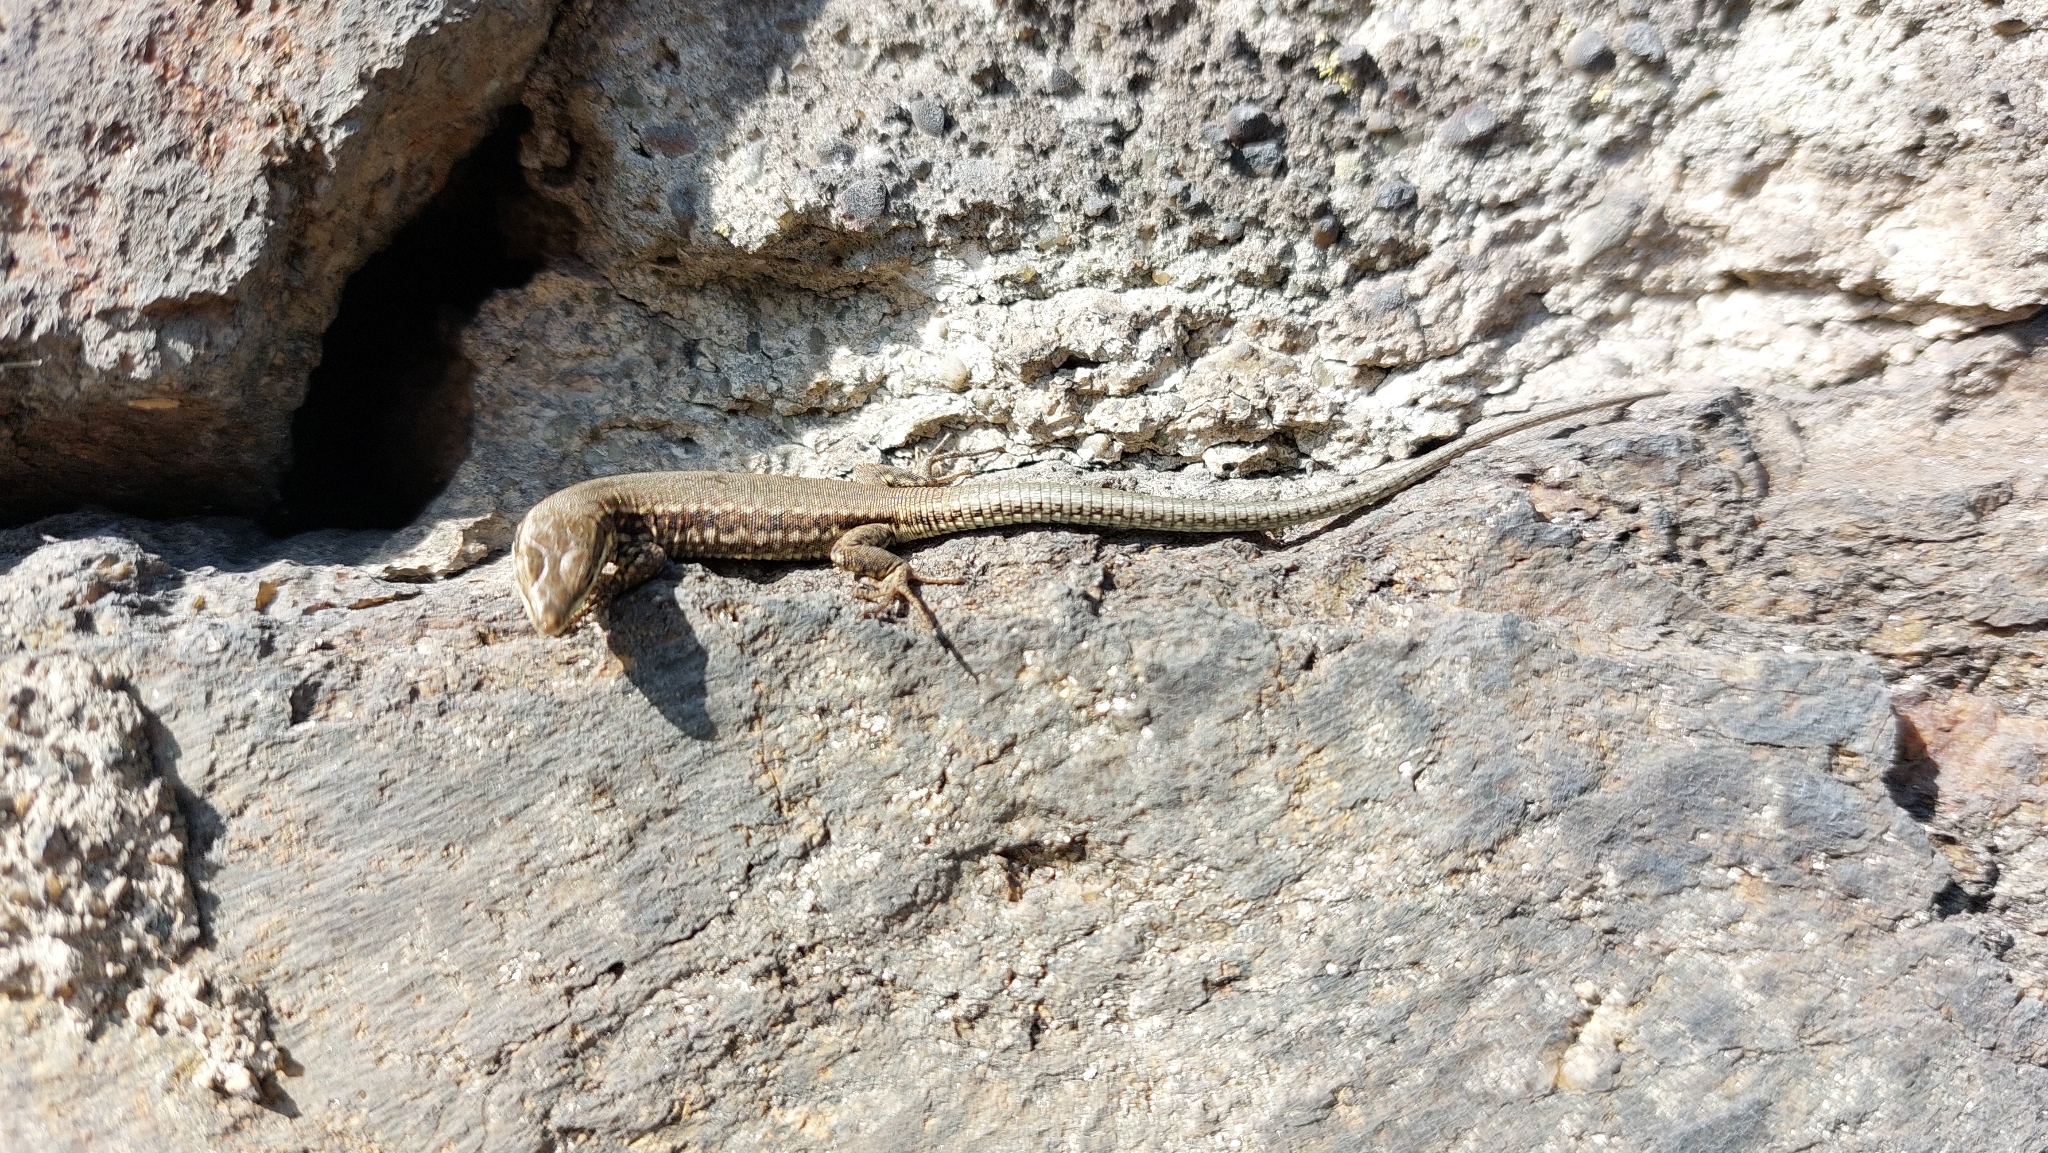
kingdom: Animalia
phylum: Chordata
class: Squamata
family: Lacertidae
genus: Podarcis
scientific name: Podarcis muralis
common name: Common wall lizard
